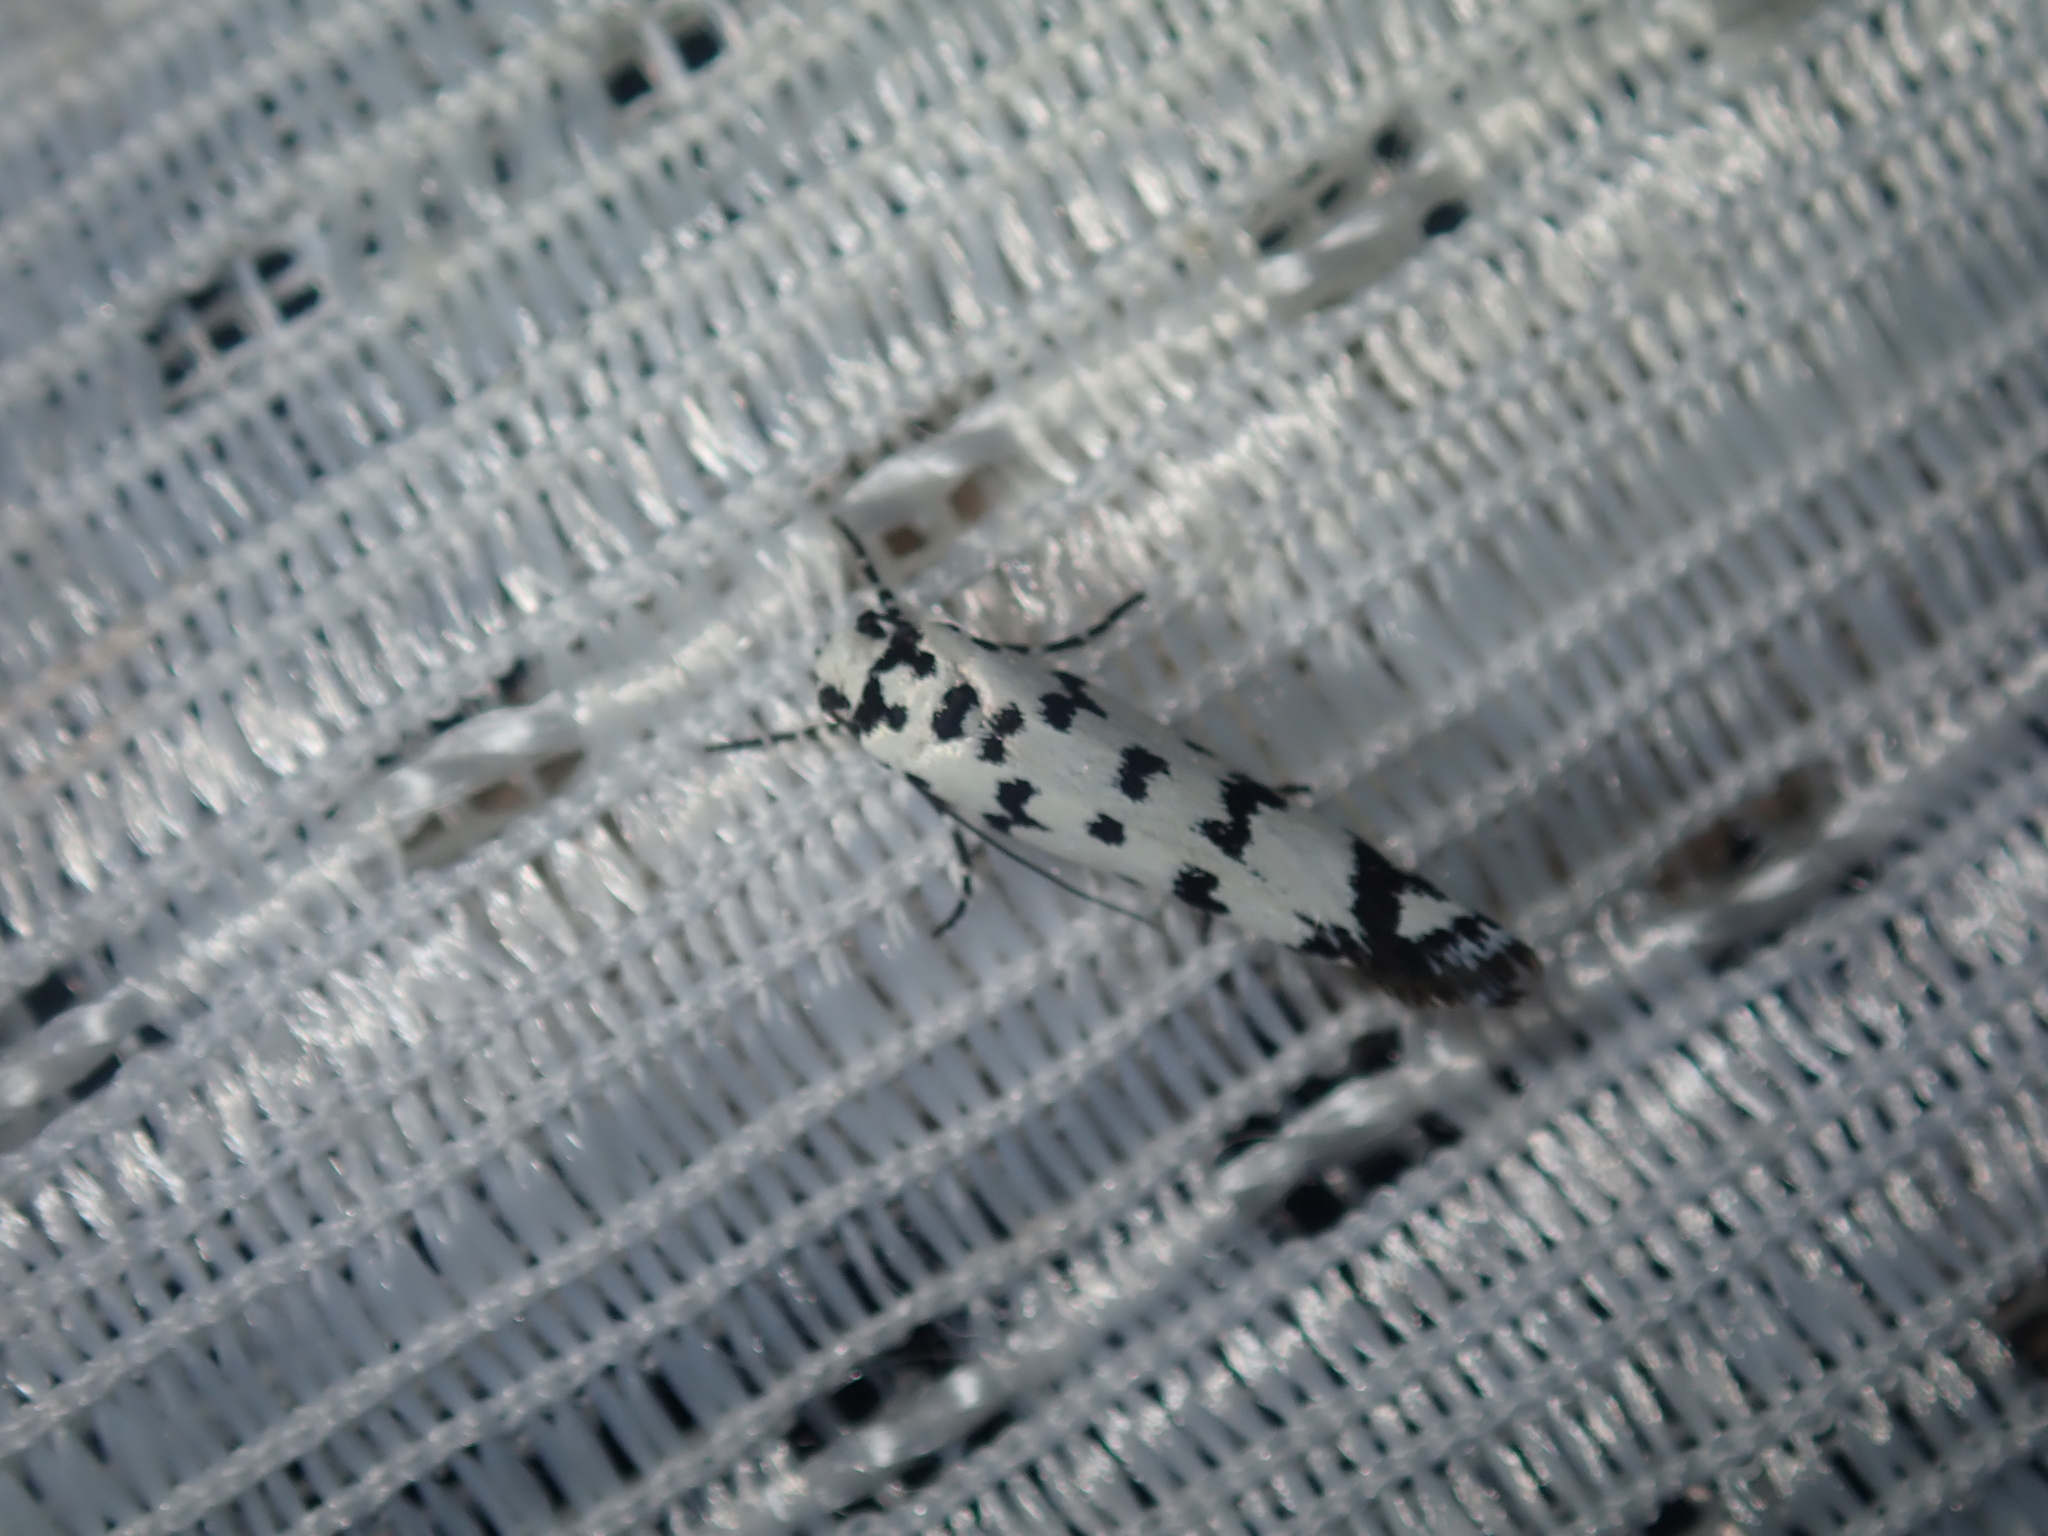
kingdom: Animalia
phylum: Arthropoda
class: Insecta
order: Lepidoptera
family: Ethmiidae
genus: Ethmia
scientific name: Ethmia eupostica
